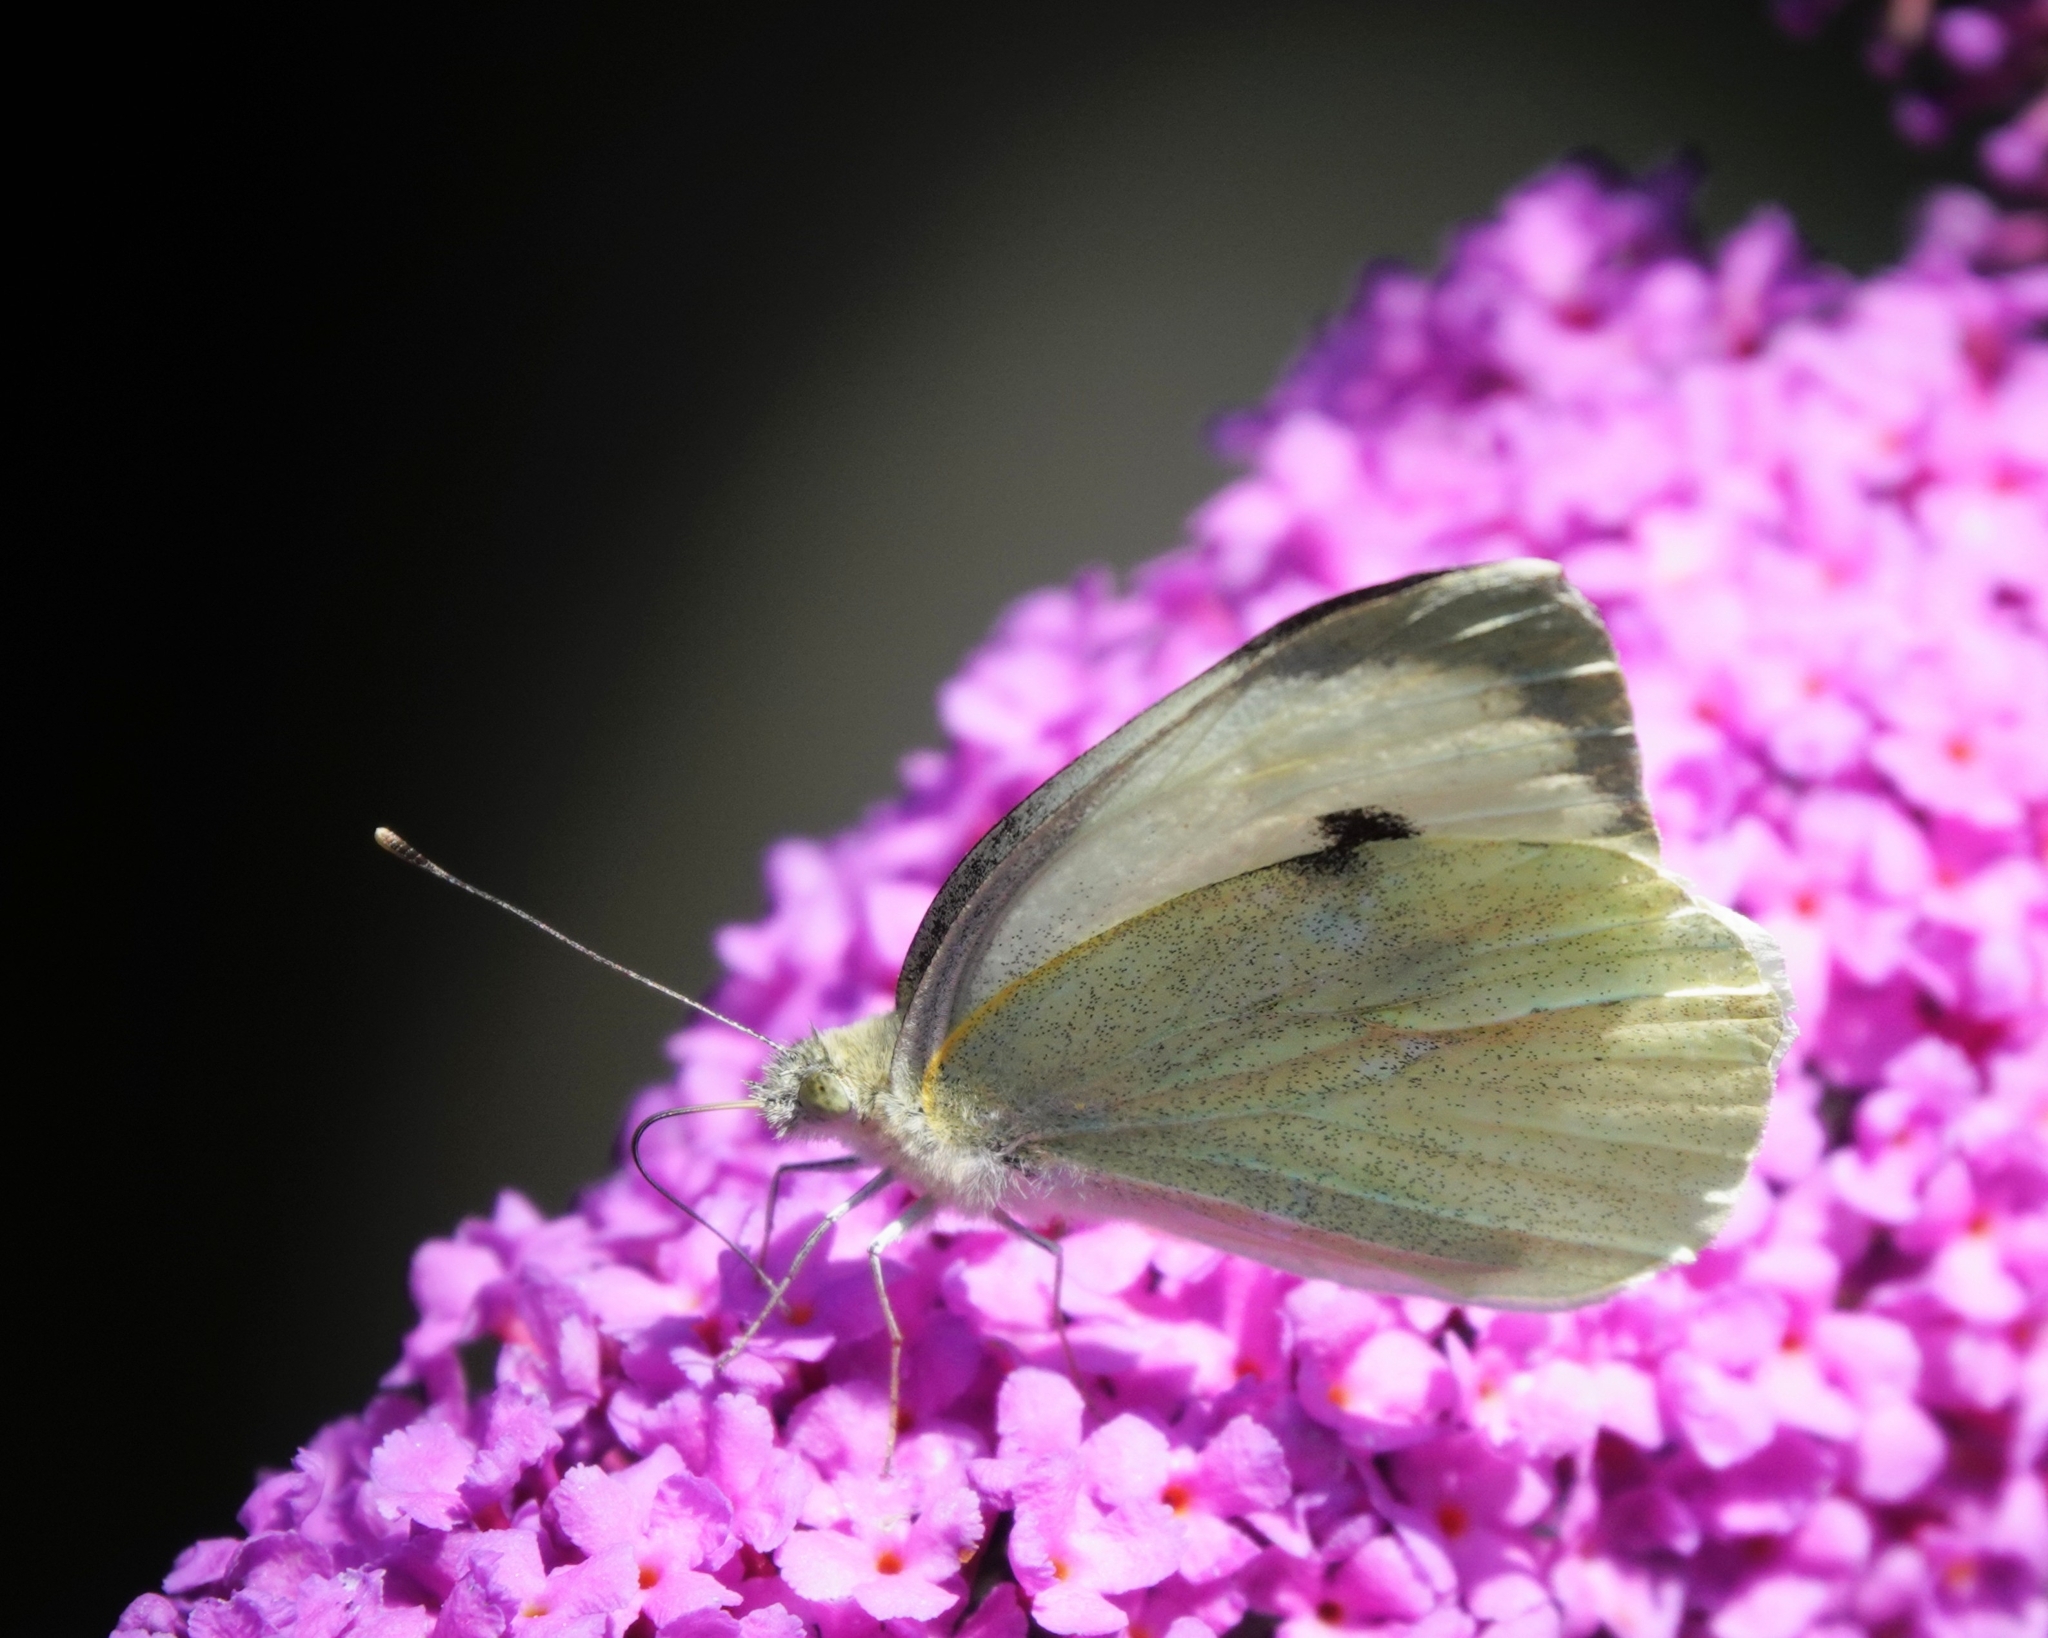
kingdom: Animalia
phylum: Arthropoda
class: Insecta
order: Lepidoptera
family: Pieridae
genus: Pieris
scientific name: Pieris brassicae
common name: Large white
